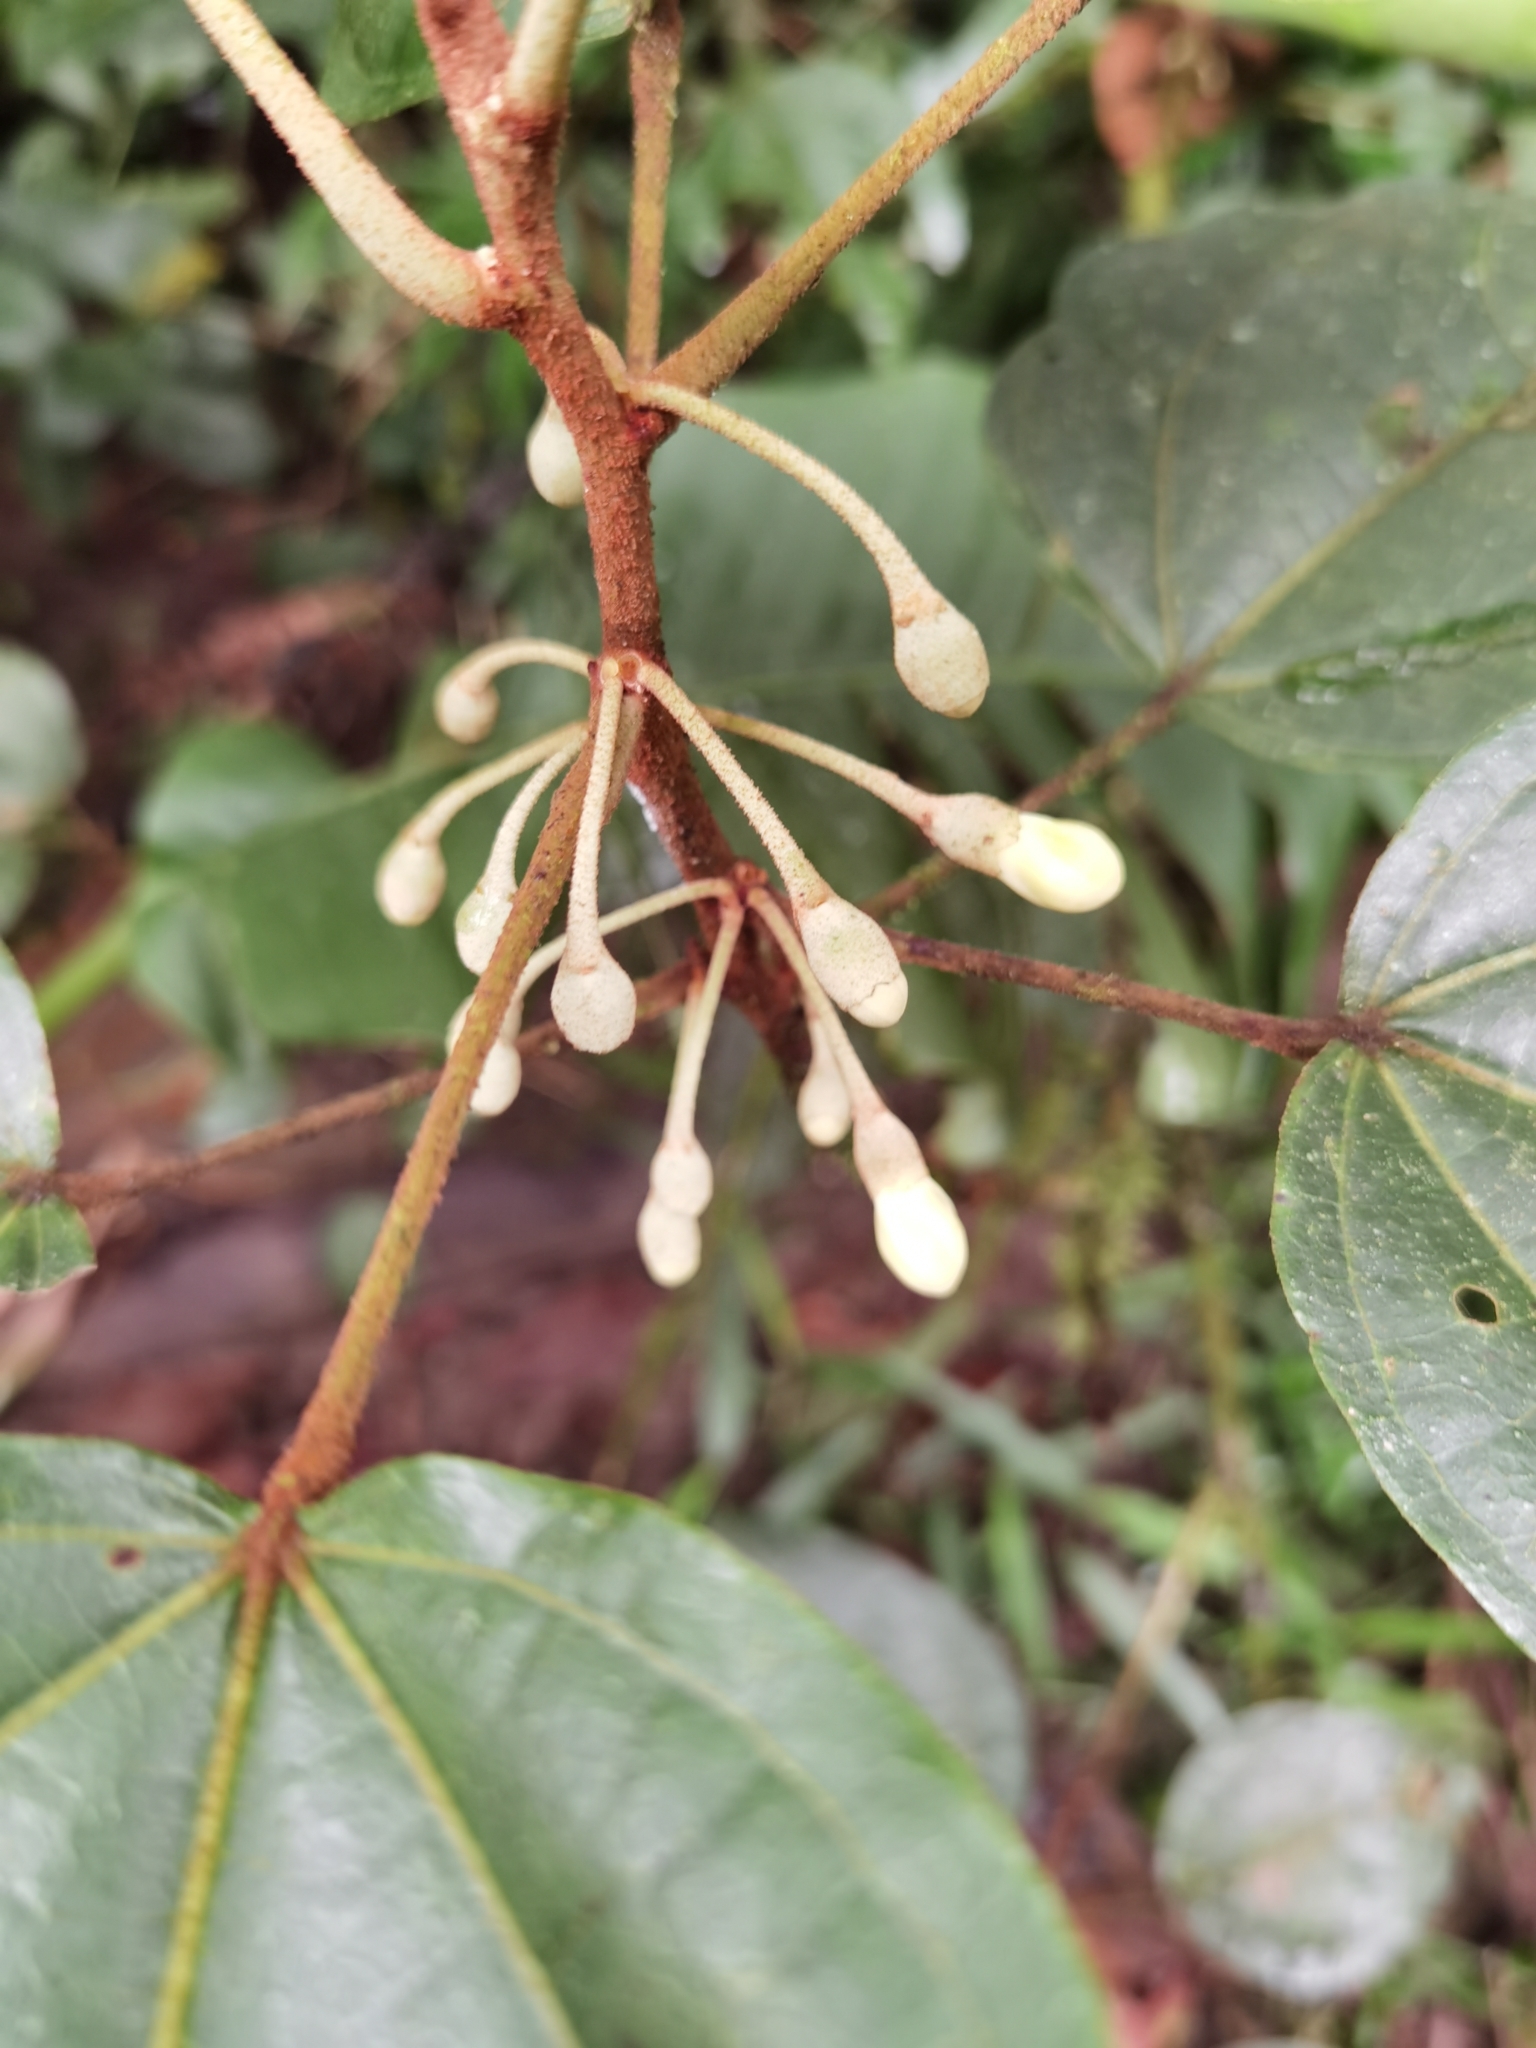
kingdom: Plantae
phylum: Tracheophyta
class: Magnoliopsida
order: Malvales
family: Malvaceae
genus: Hampea
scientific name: Hampea appendiculata
